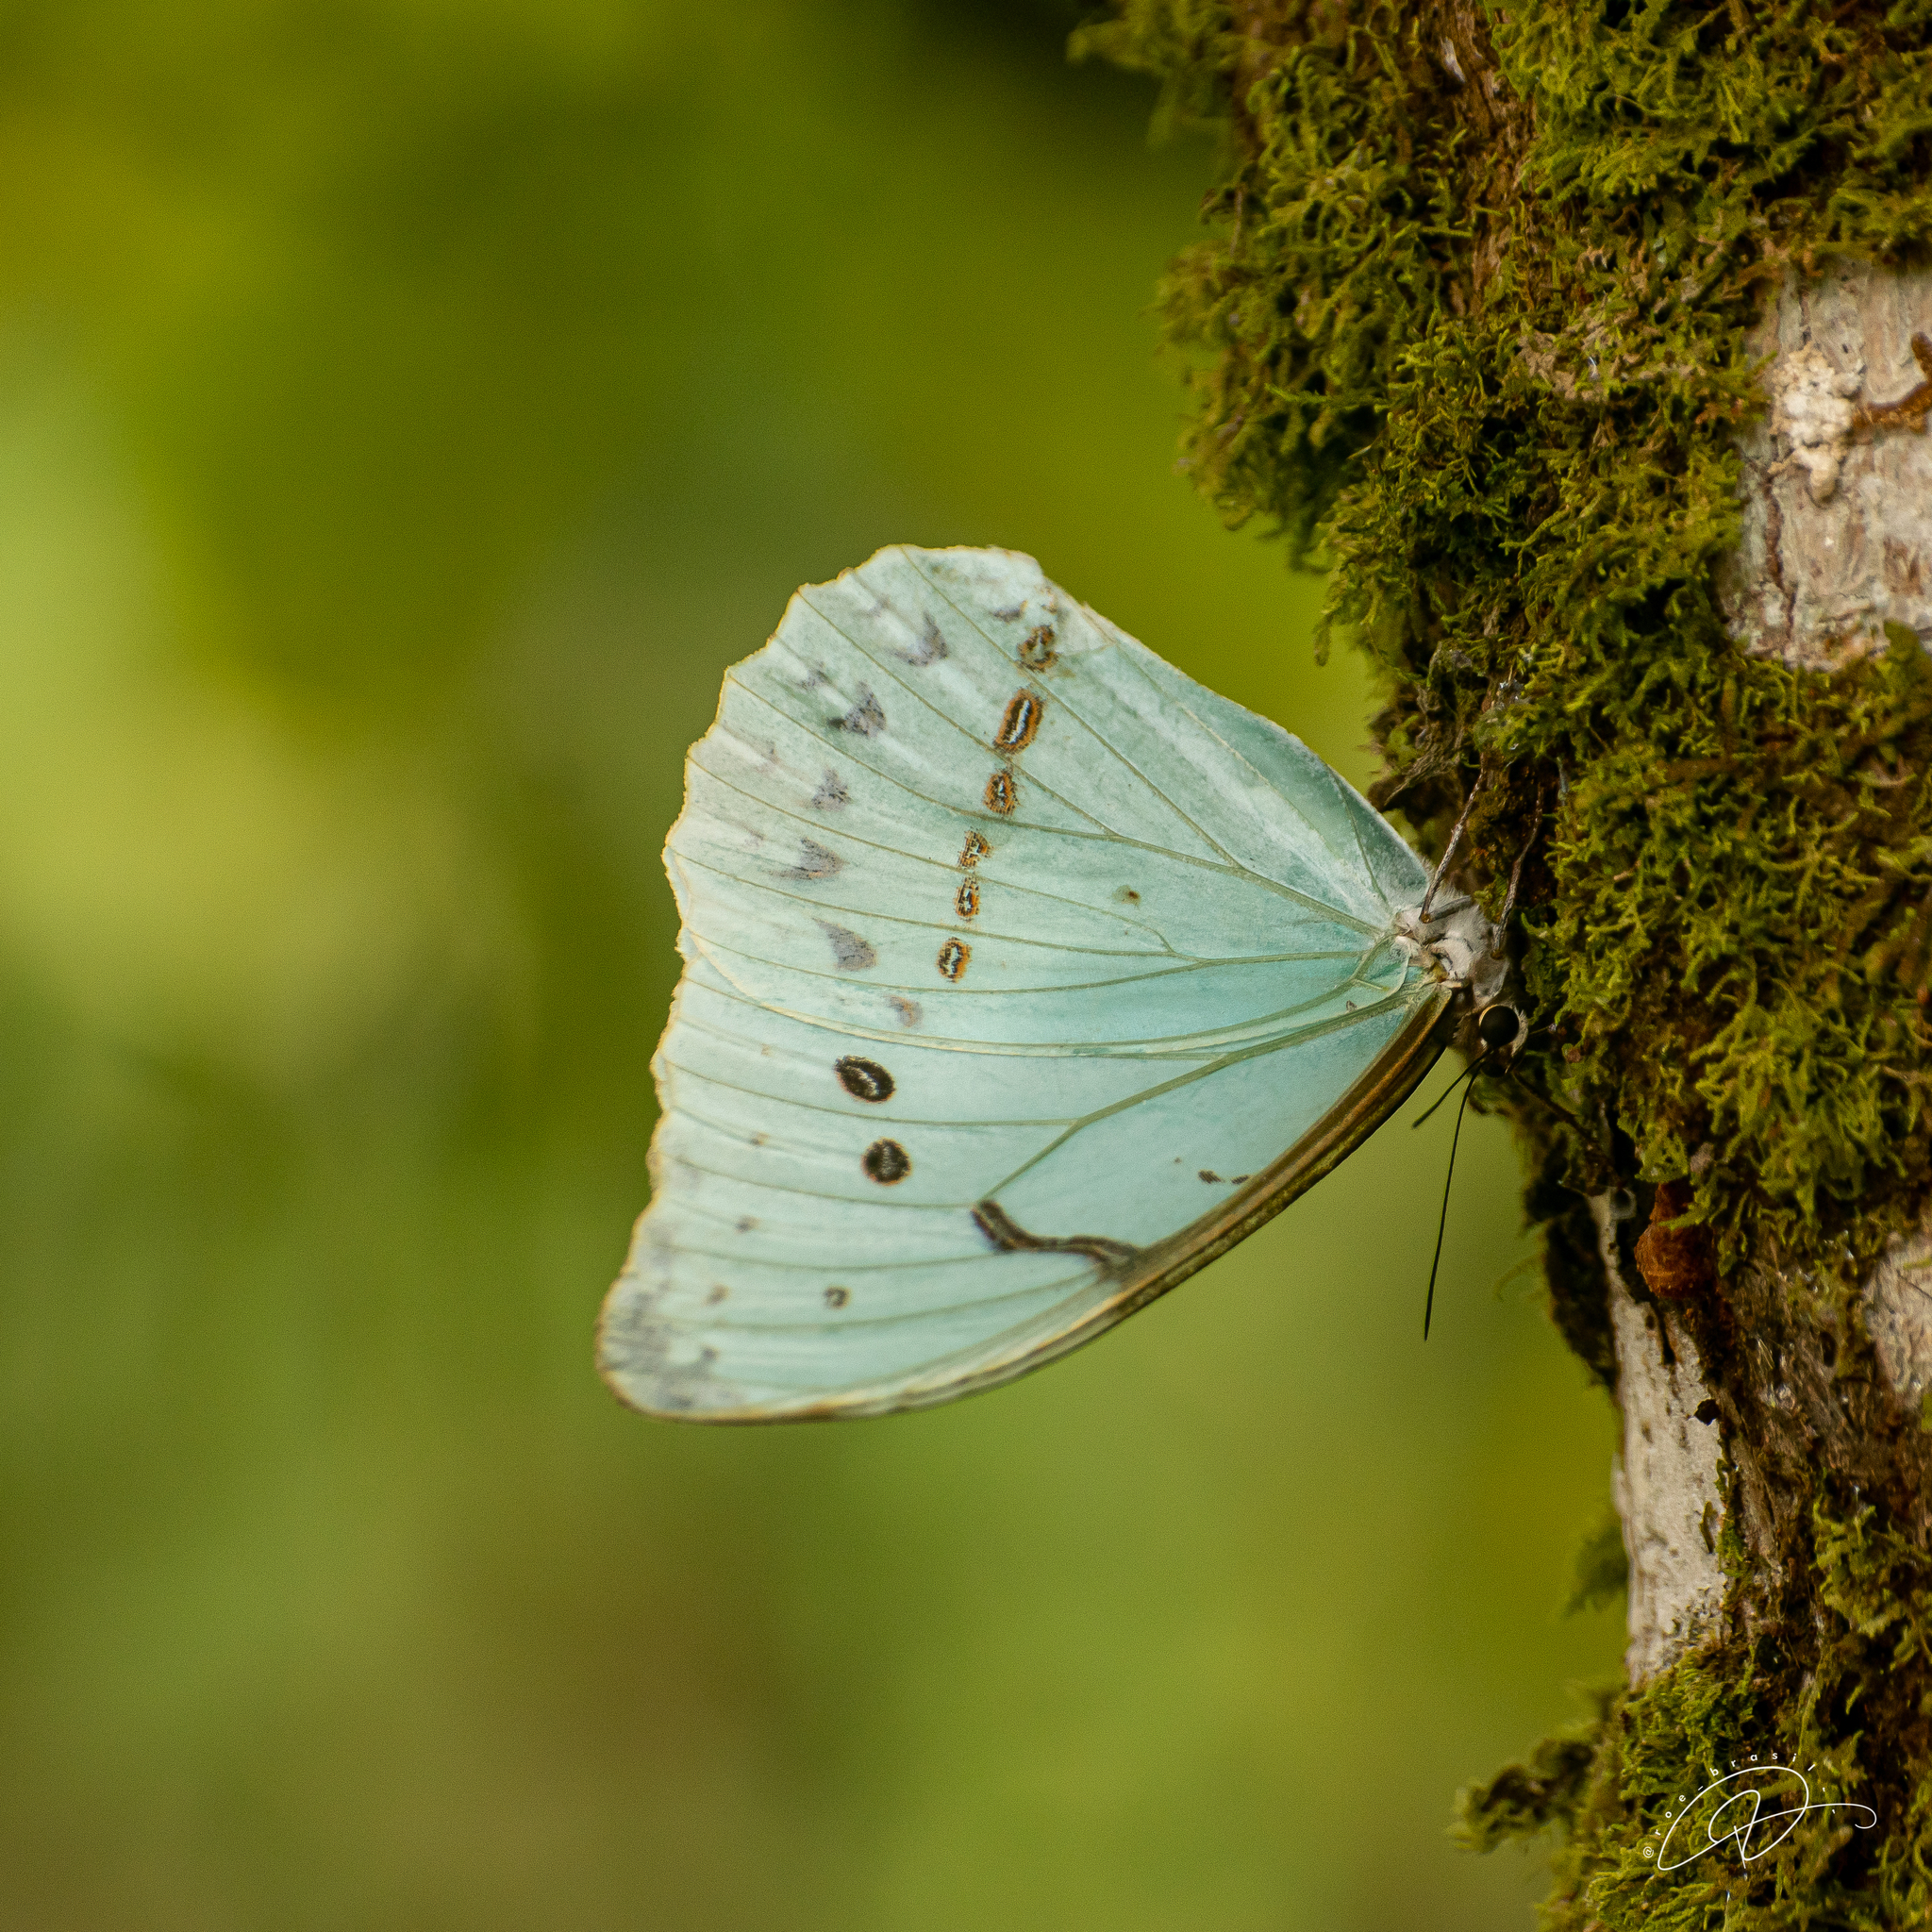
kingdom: Animalia
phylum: Arthropoda
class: Insecta
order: Lepidoptera
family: Nymphalidae
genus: Morpho
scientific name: Morpho epistrophus
